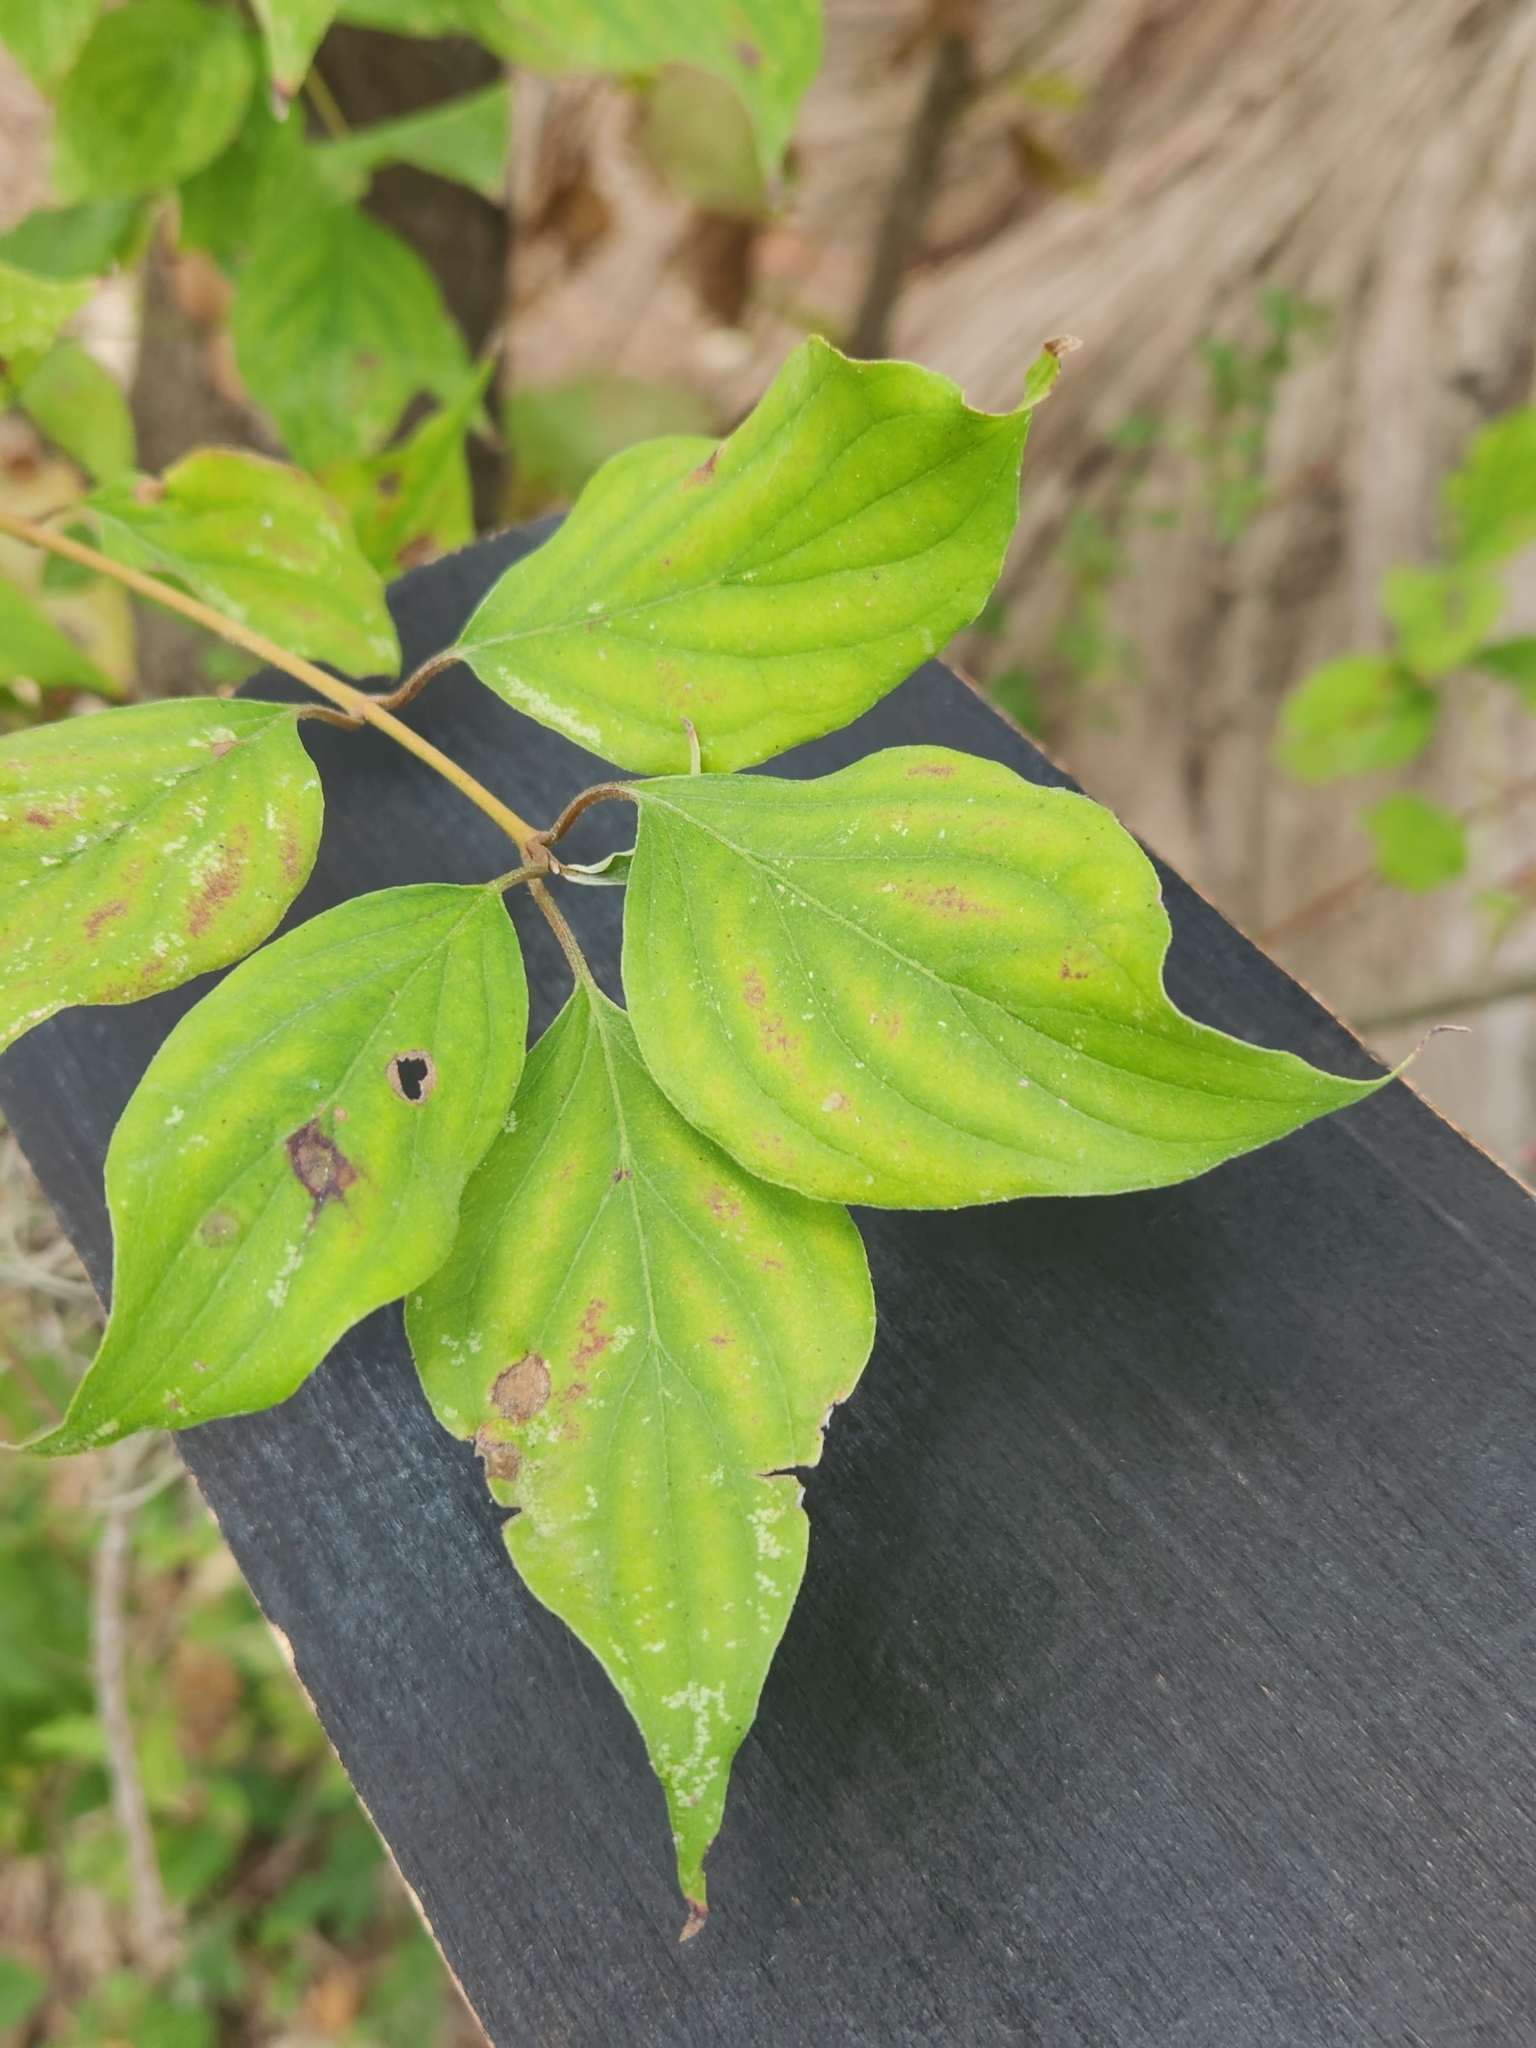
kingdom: Plantae
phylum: Tracheophyta
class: Magnoliopsida
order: Cornales
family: Cornaceae
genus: Cornus
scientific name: Cornus drummondii
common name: Rough-leaf dogwood
